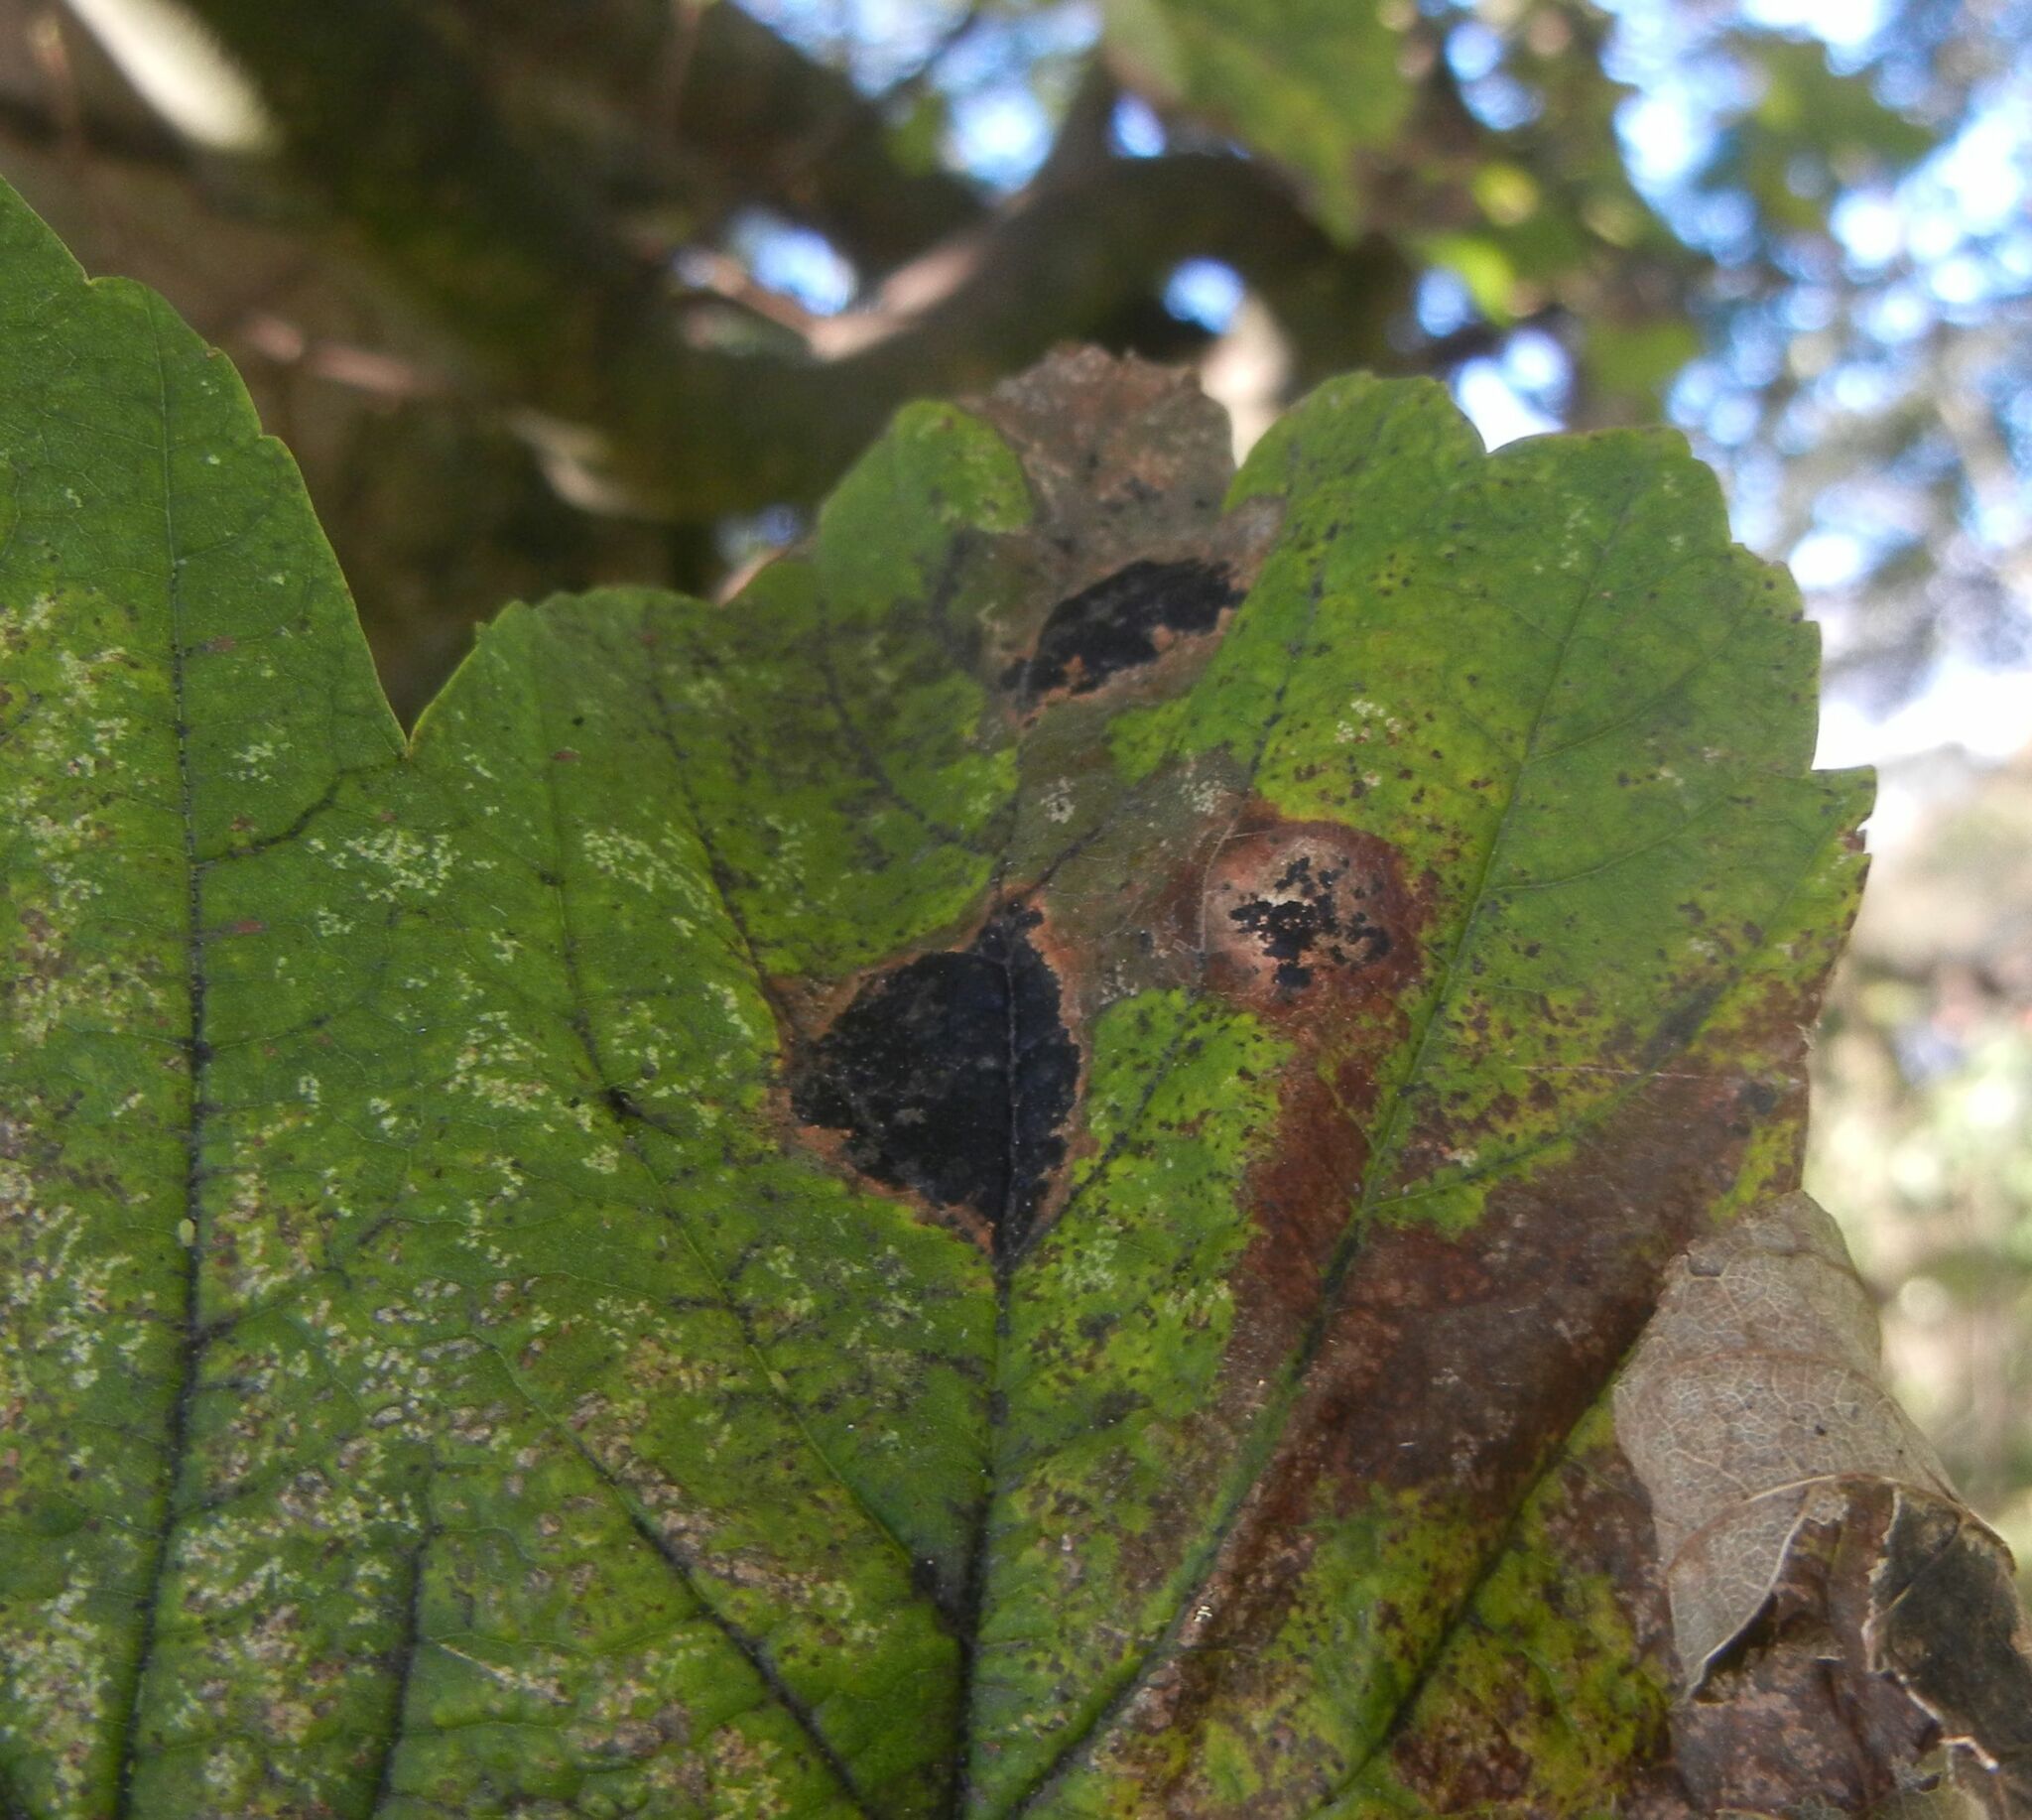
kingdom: Fungi
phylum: Ascomycota
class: Leotiomycetes
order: Rhytismatales
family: Rhytismataceae
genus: Rhytisma
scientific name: Rhytisma acerinum
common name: European tar spot
